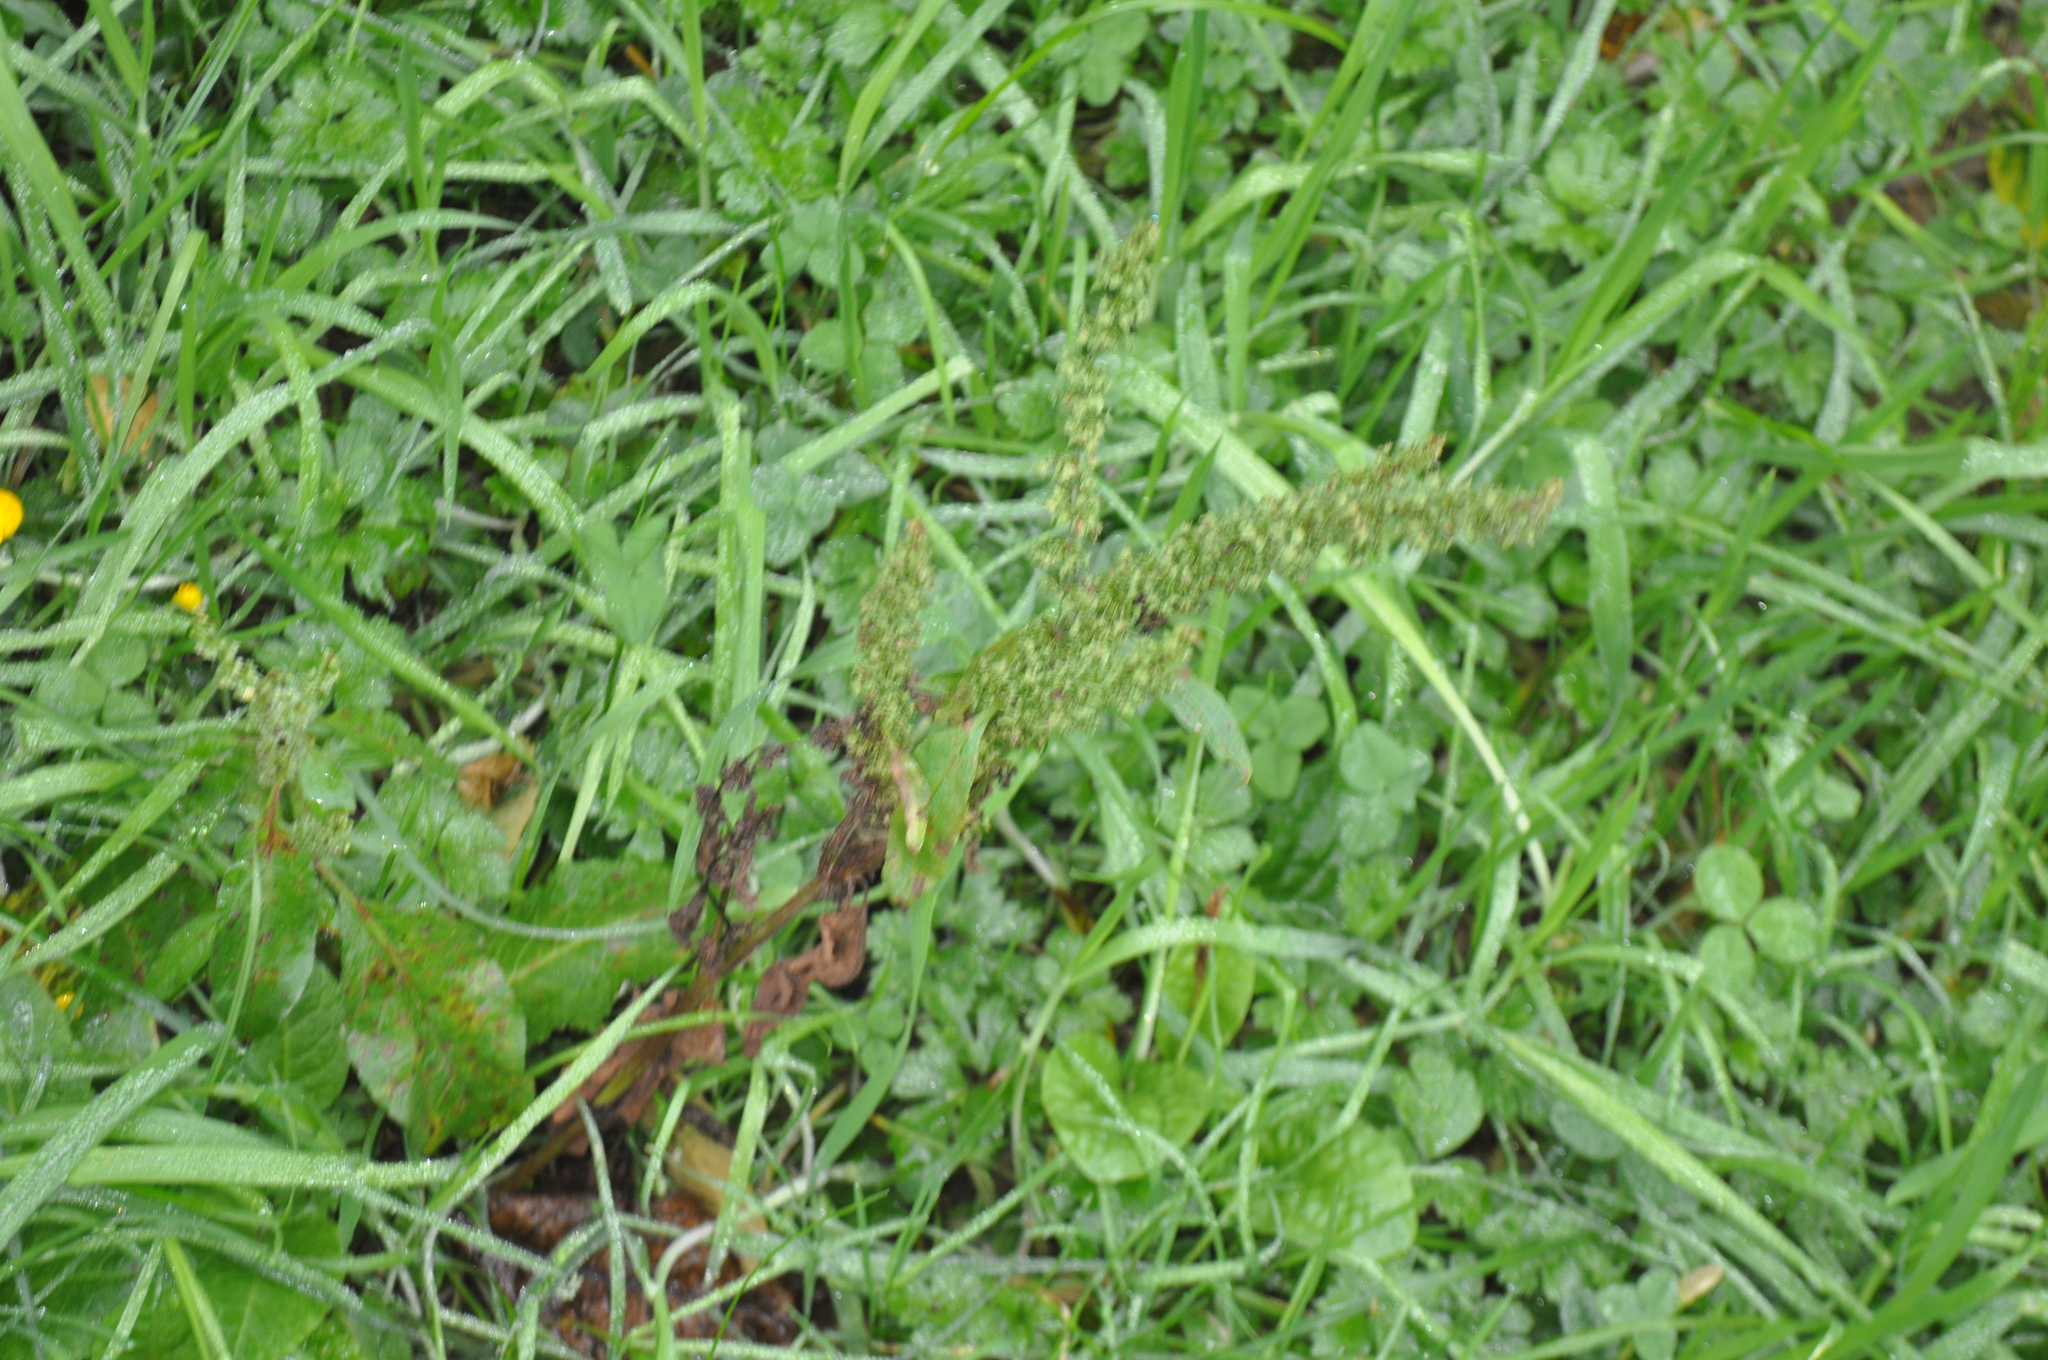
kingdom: Plantae
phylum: Tracheophyta
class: Magnoliopsida
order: Caryophyllales
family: Polygonaceae
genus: Rumex
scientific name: Rumex obtusifolius
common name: Bitter dock
